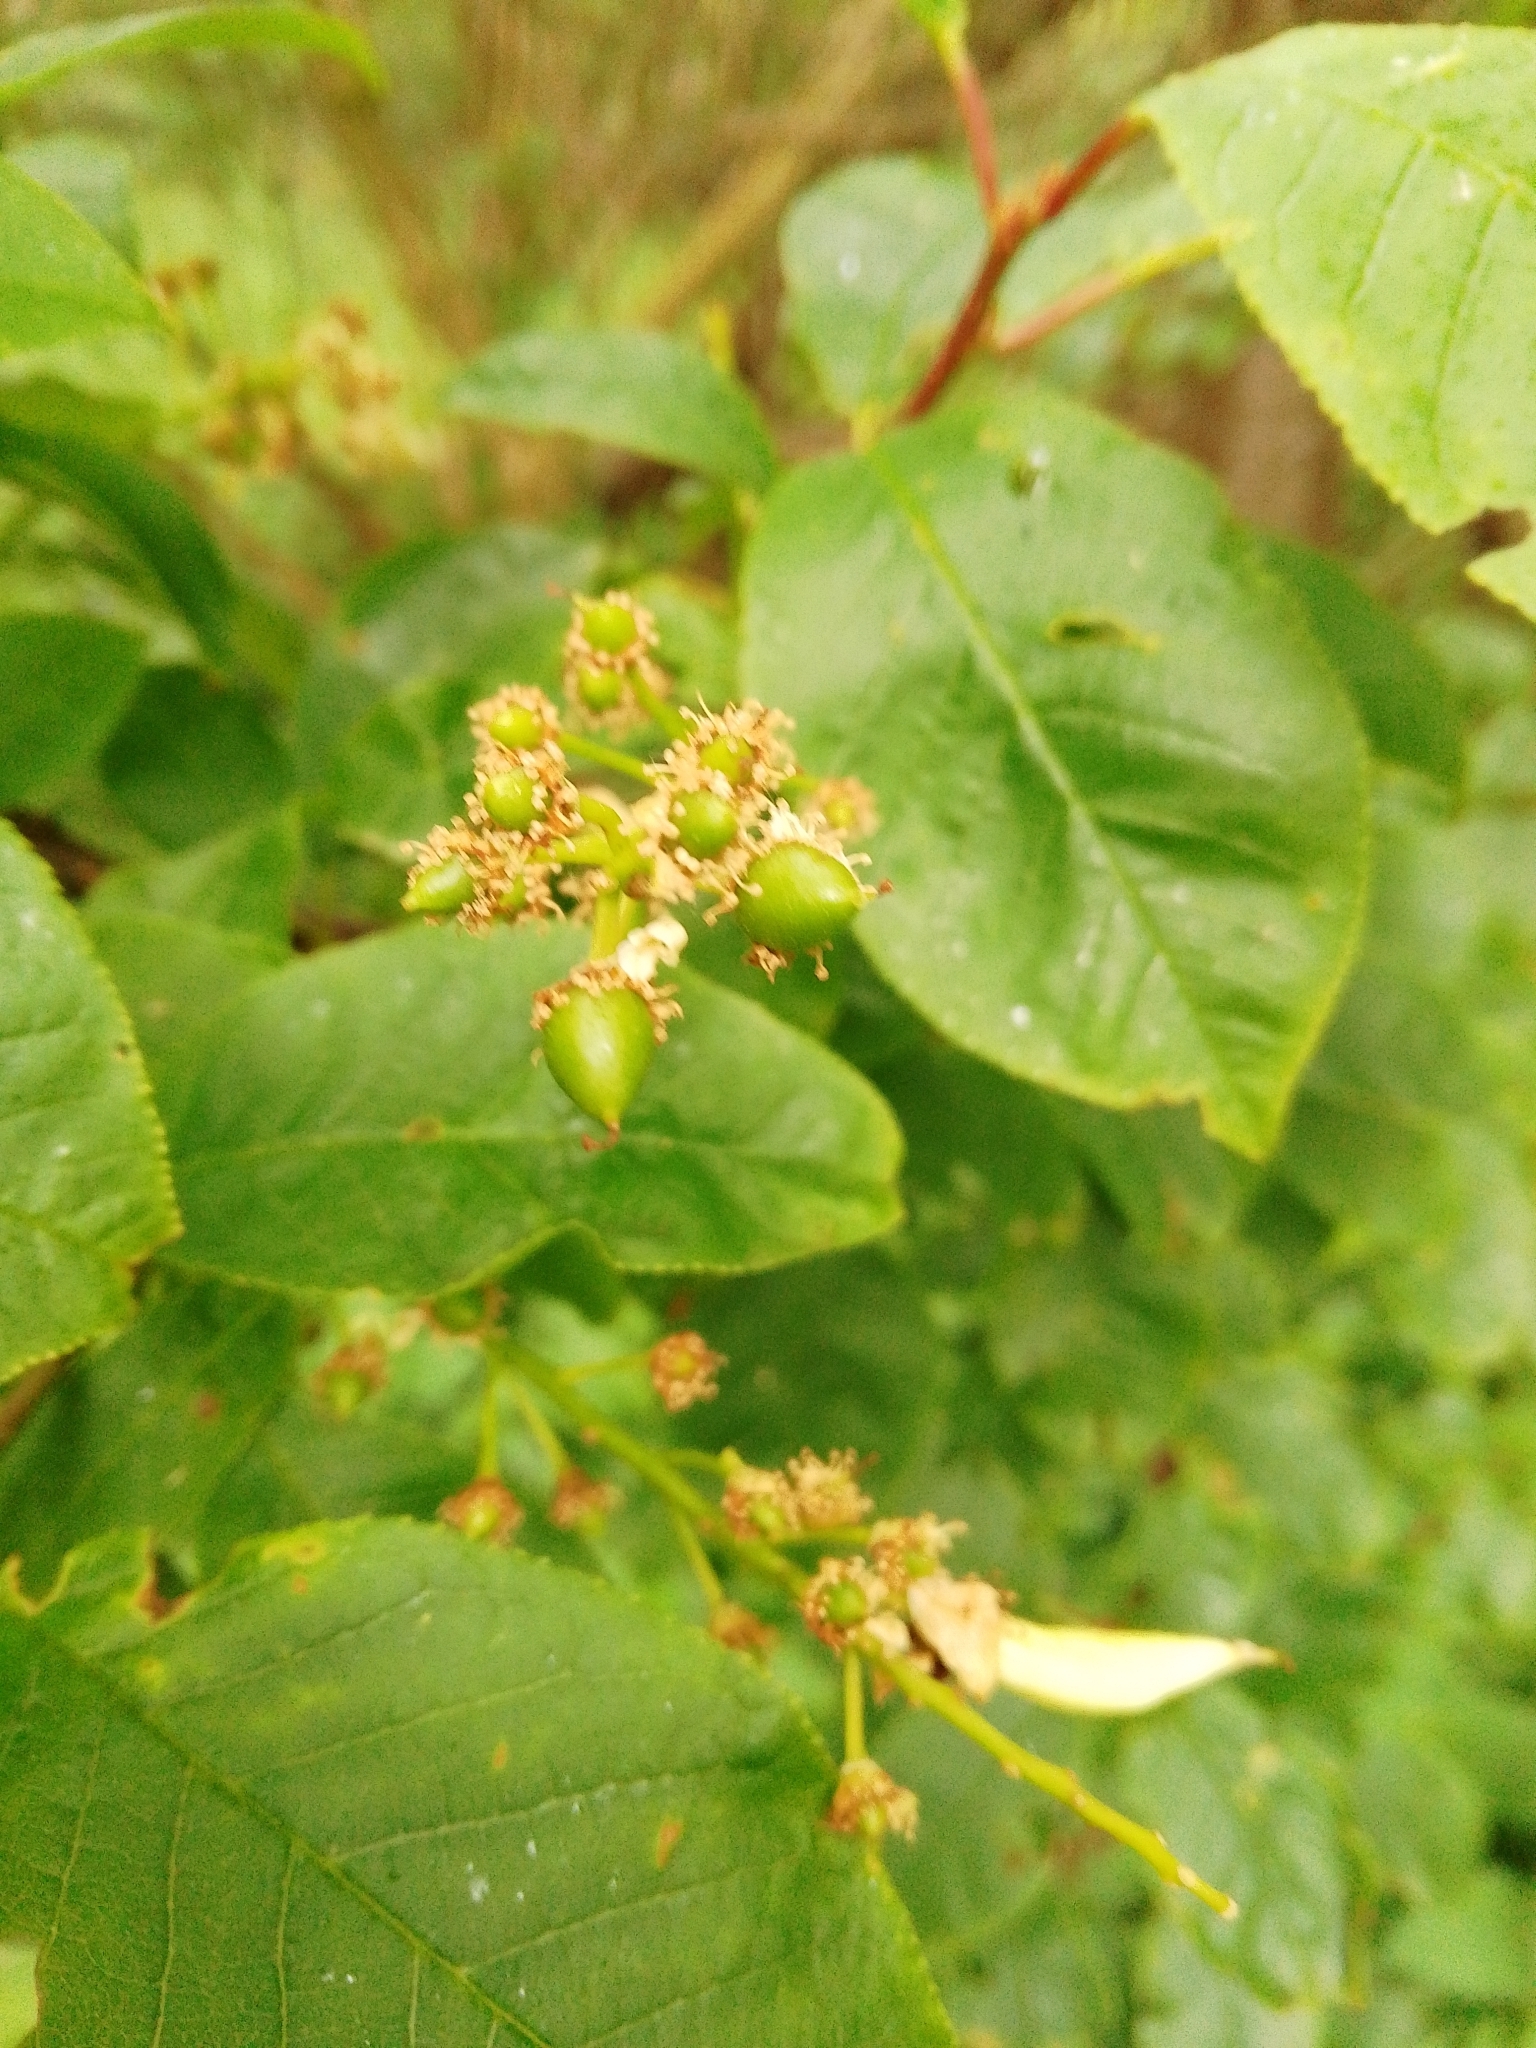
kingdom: Fungi
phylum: Ascomycota
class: Taphrinomycetes
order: Taphrinales
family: Taphrinaceae
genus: Taphrina
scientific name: Taphrina padi
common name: Bird cherry pocket
